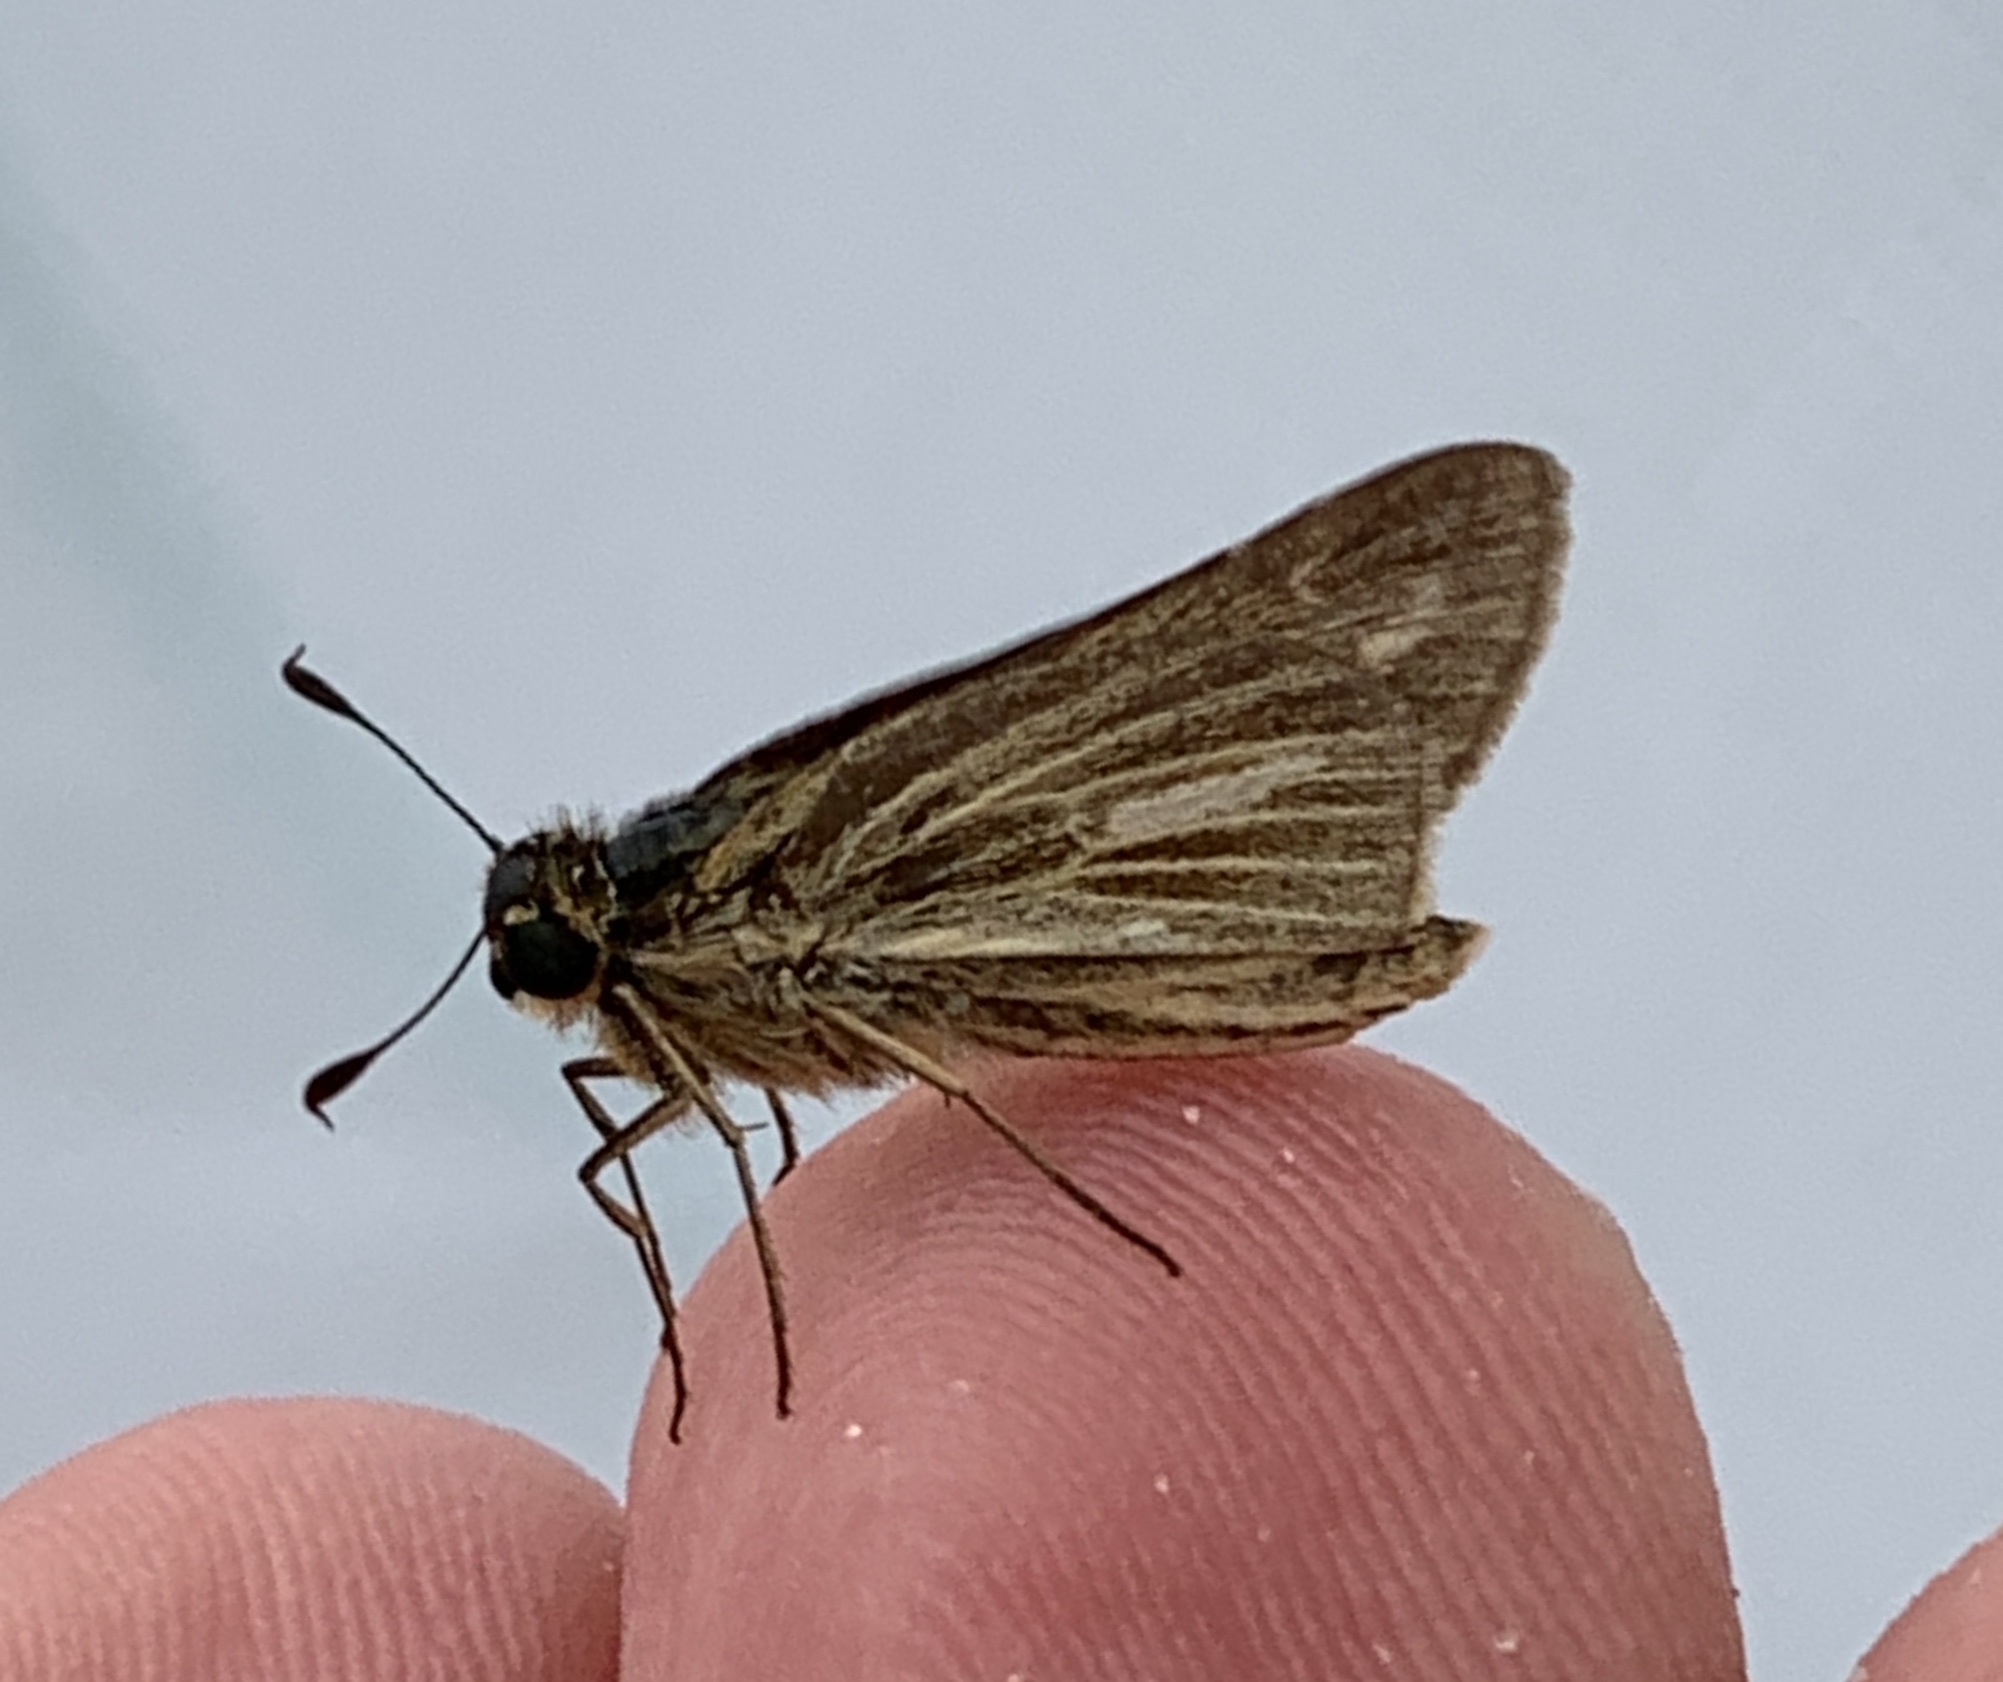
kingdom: Animalia
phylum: Arthropoda
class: Insecta
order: Lepidoptera
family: Hesperiidae
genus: Panoquina
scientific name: Panoquina panoquin
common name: Salt marsh skipper
